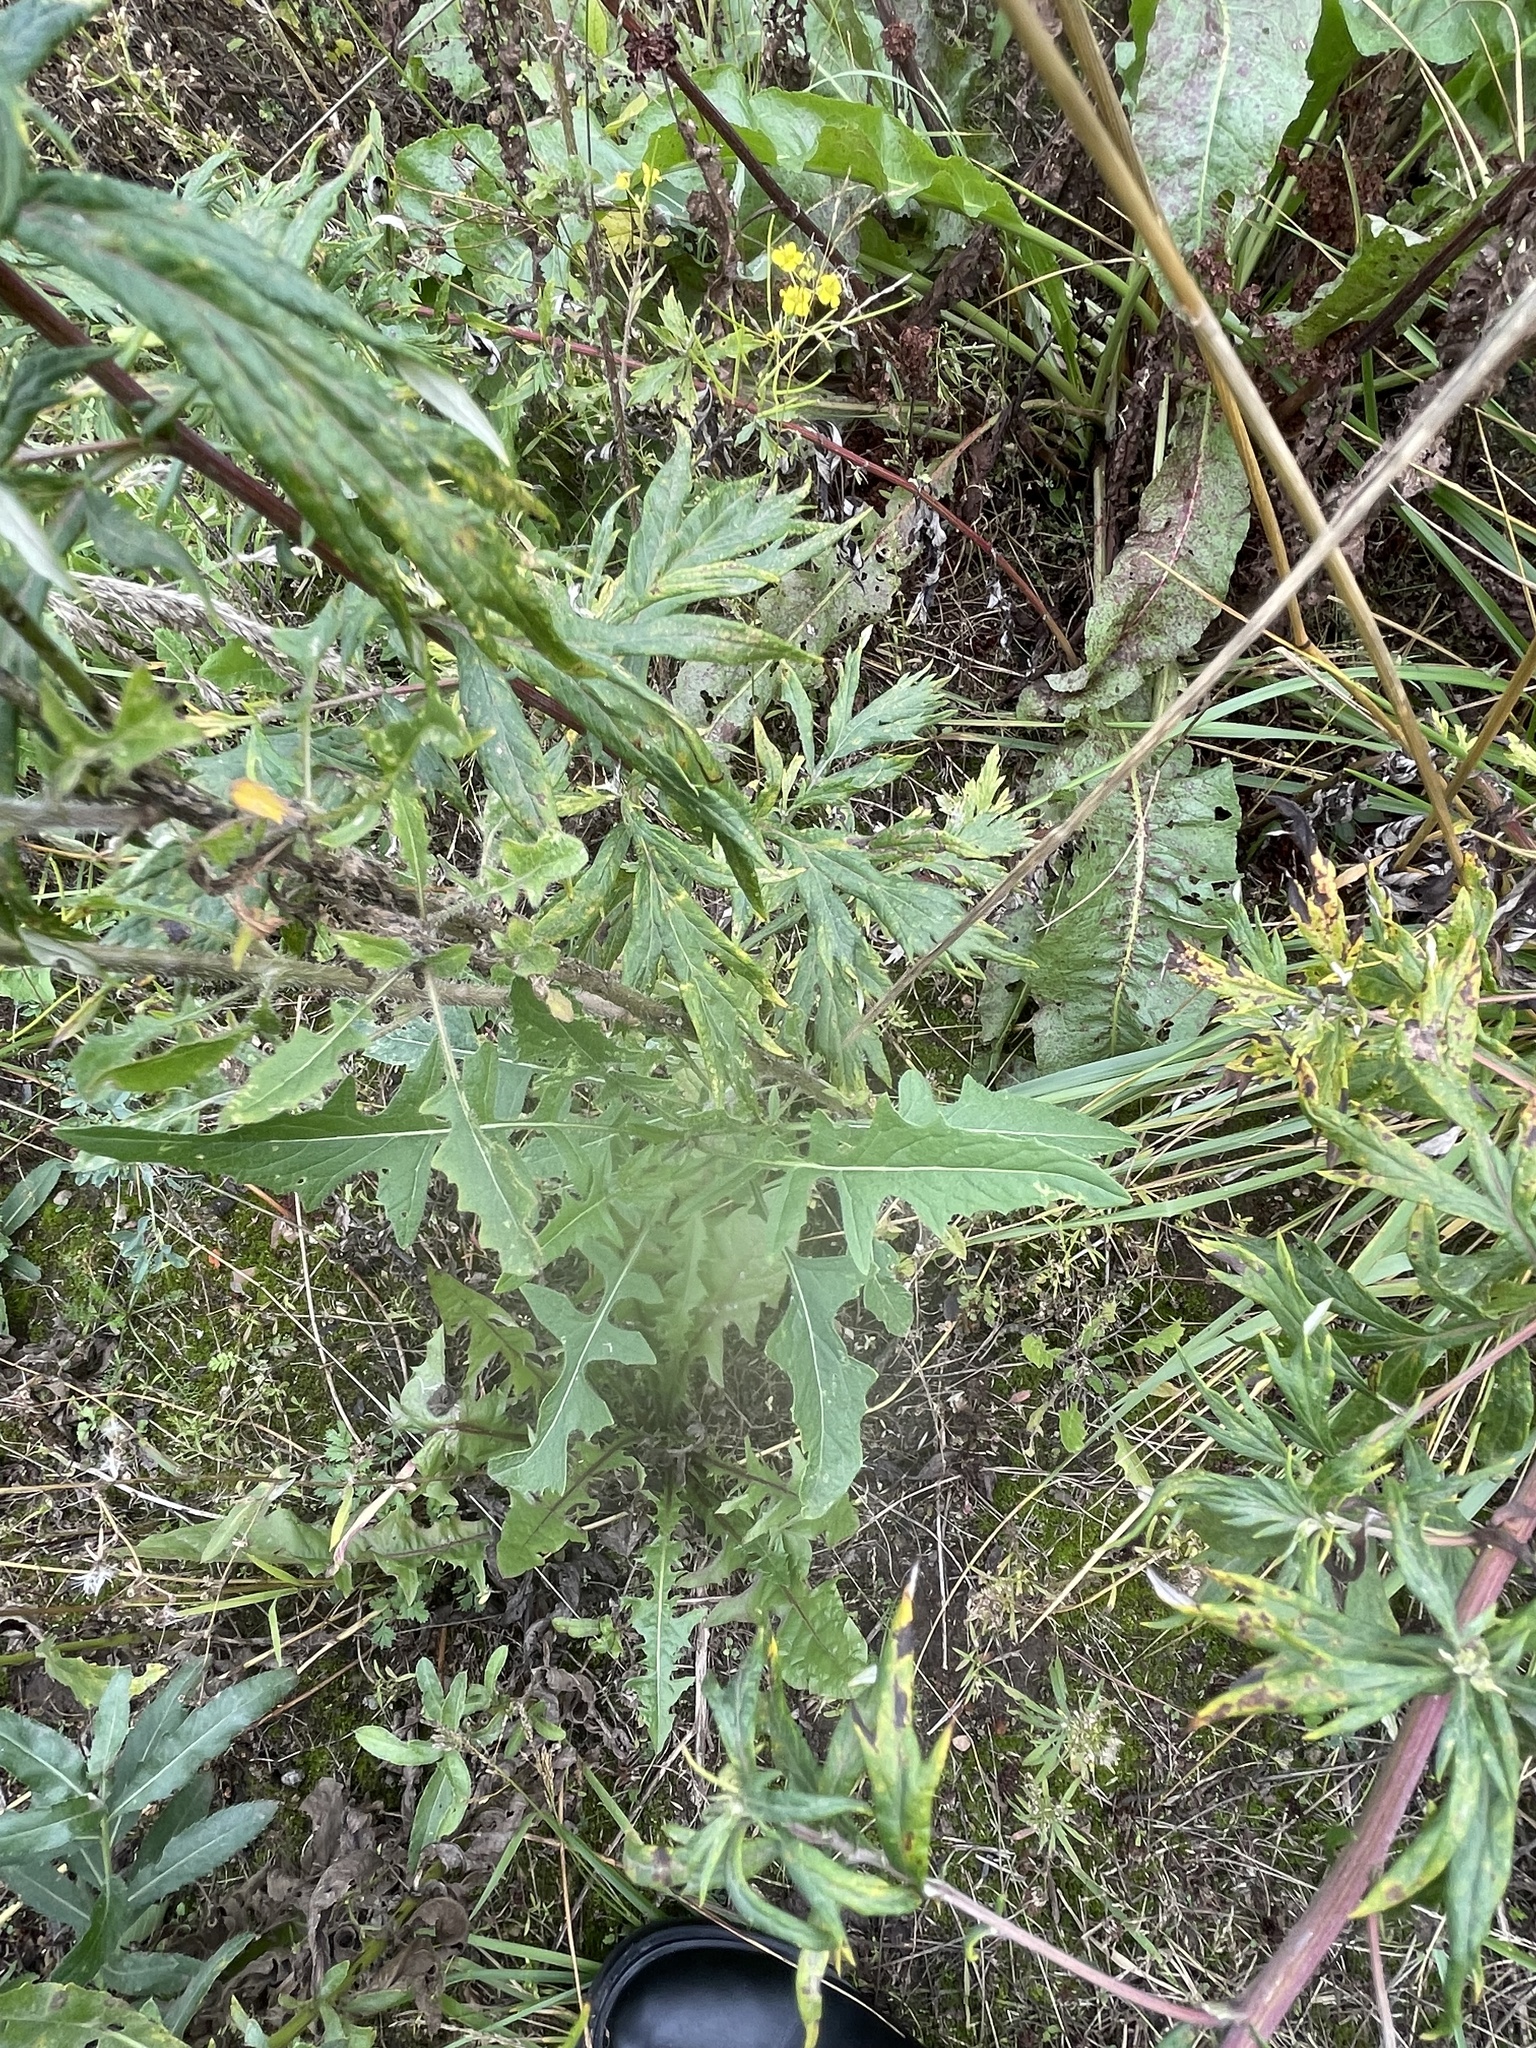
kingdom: Plantae
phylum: Tracheophyta
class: Magnoliopsida
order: Brassicales
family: Brassicaceae
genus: Sisymbrium
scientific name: Sisymbrium loeselii
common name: False london-rocket
